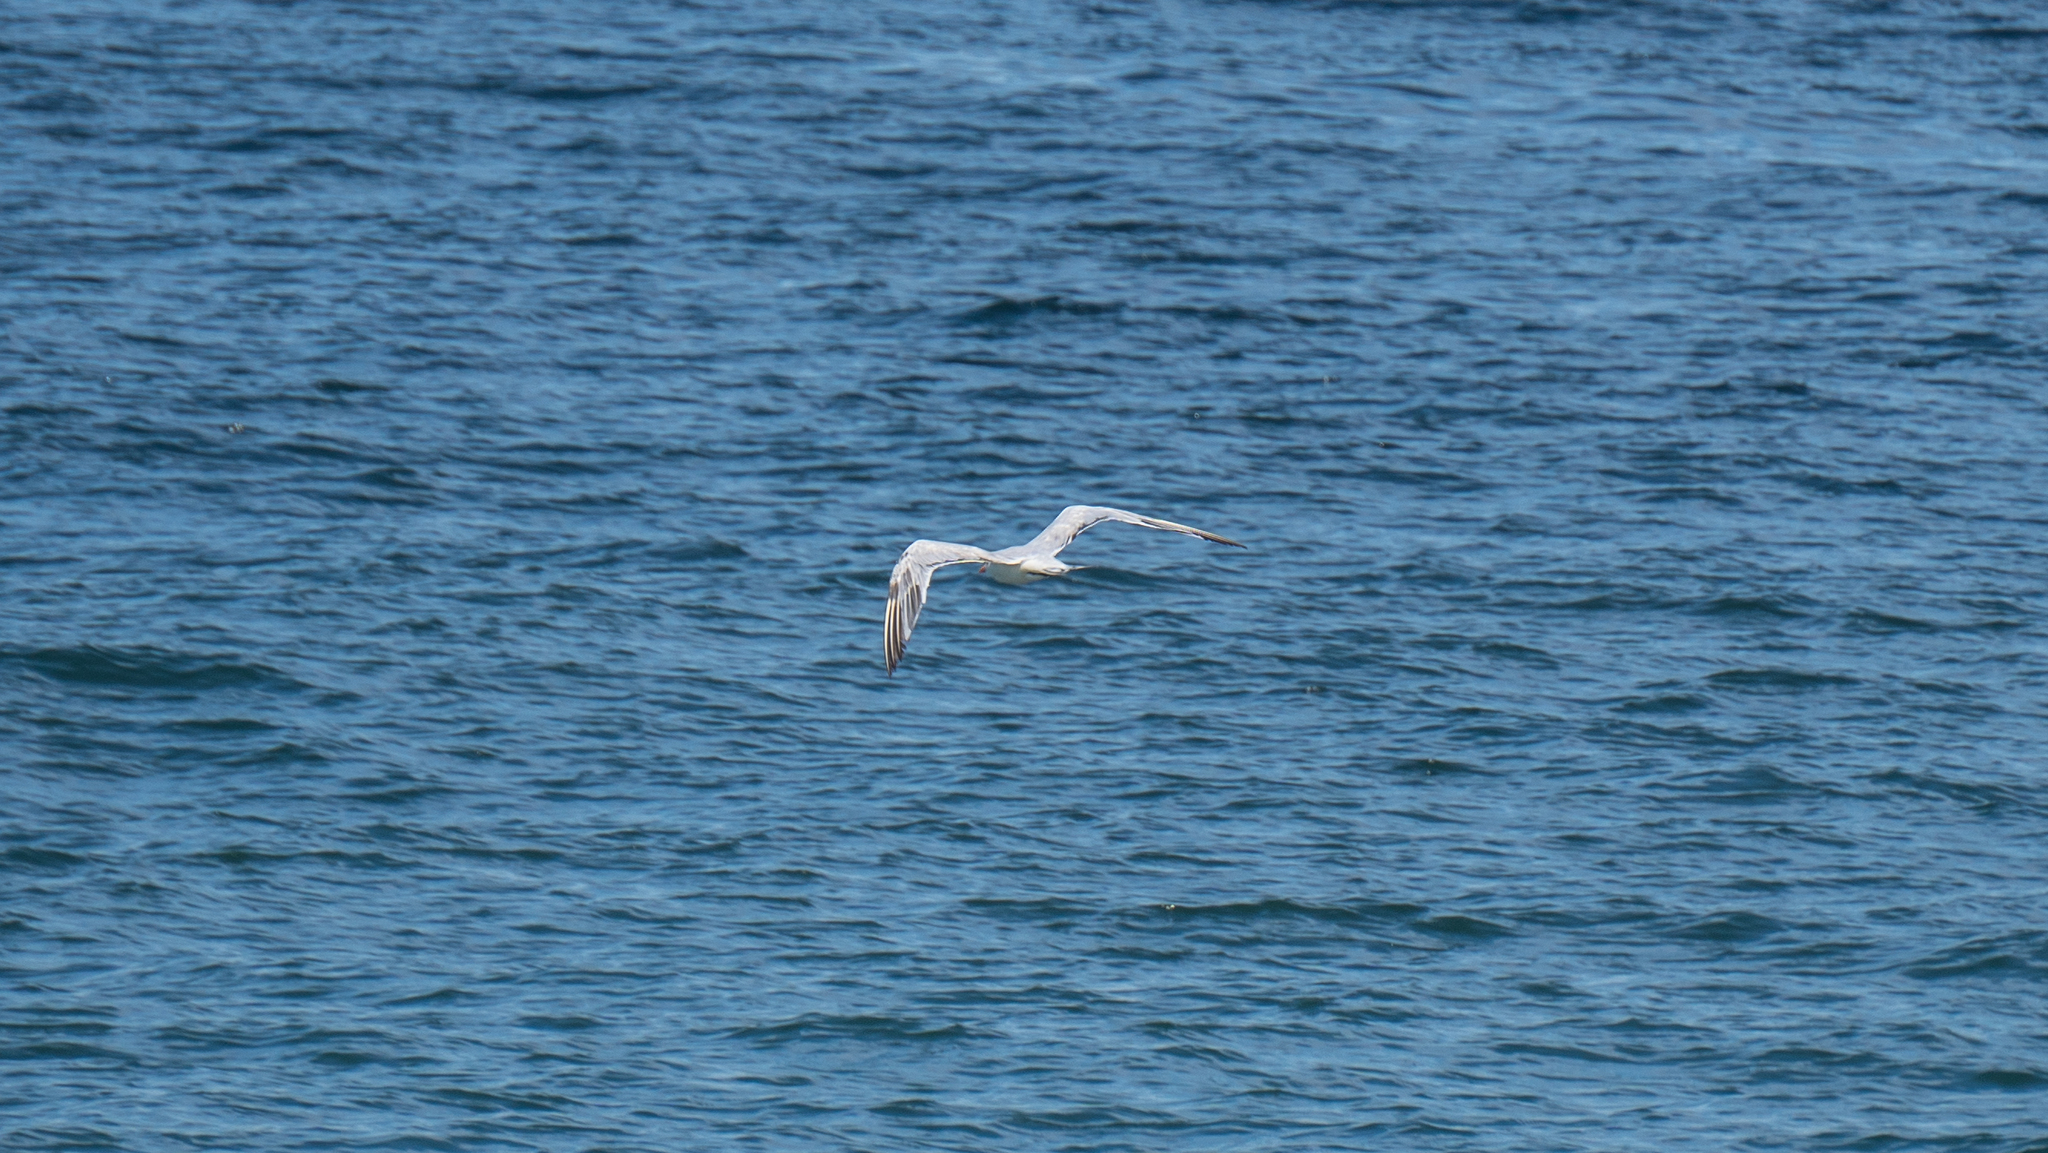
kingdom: Animalia
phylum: Chordata
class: Aves
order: Charadriiformes
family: Laridae
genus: Hydroprogne
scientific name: Hydroprogne caspia
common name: Caspian tern
